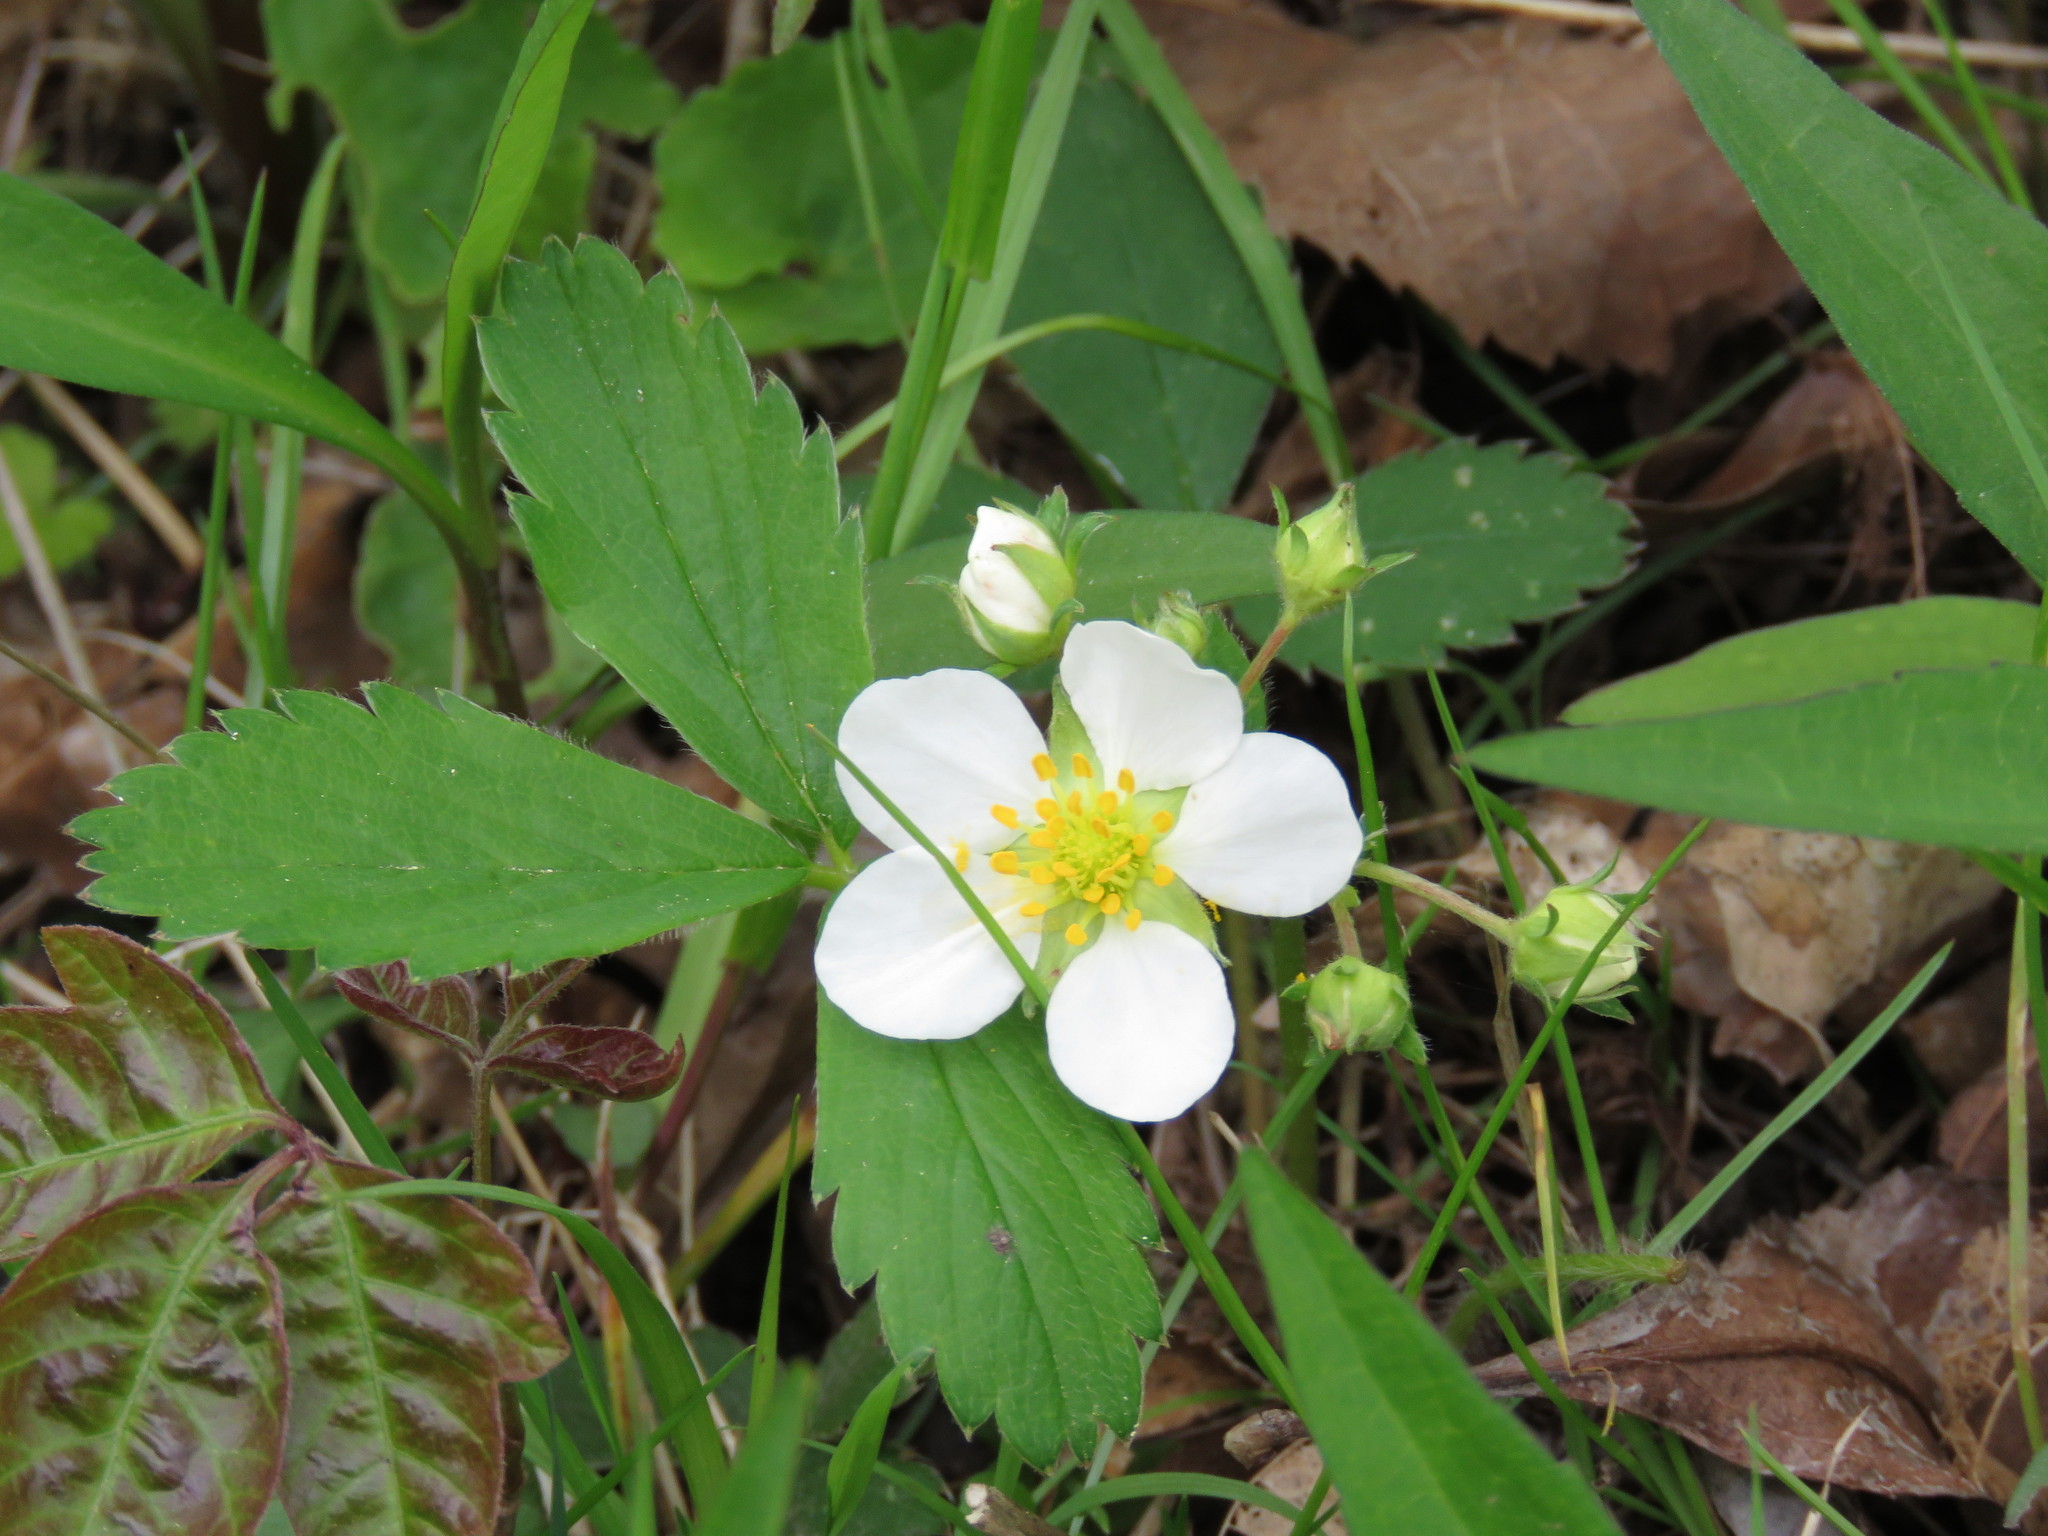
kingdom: Plantae
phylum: Tracheophyta
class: Magnoliopsida
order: Rosales
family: Rosaceae
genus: Fragaria
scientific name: Fragaria virginiana
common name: Thickleaved wild strawberry
